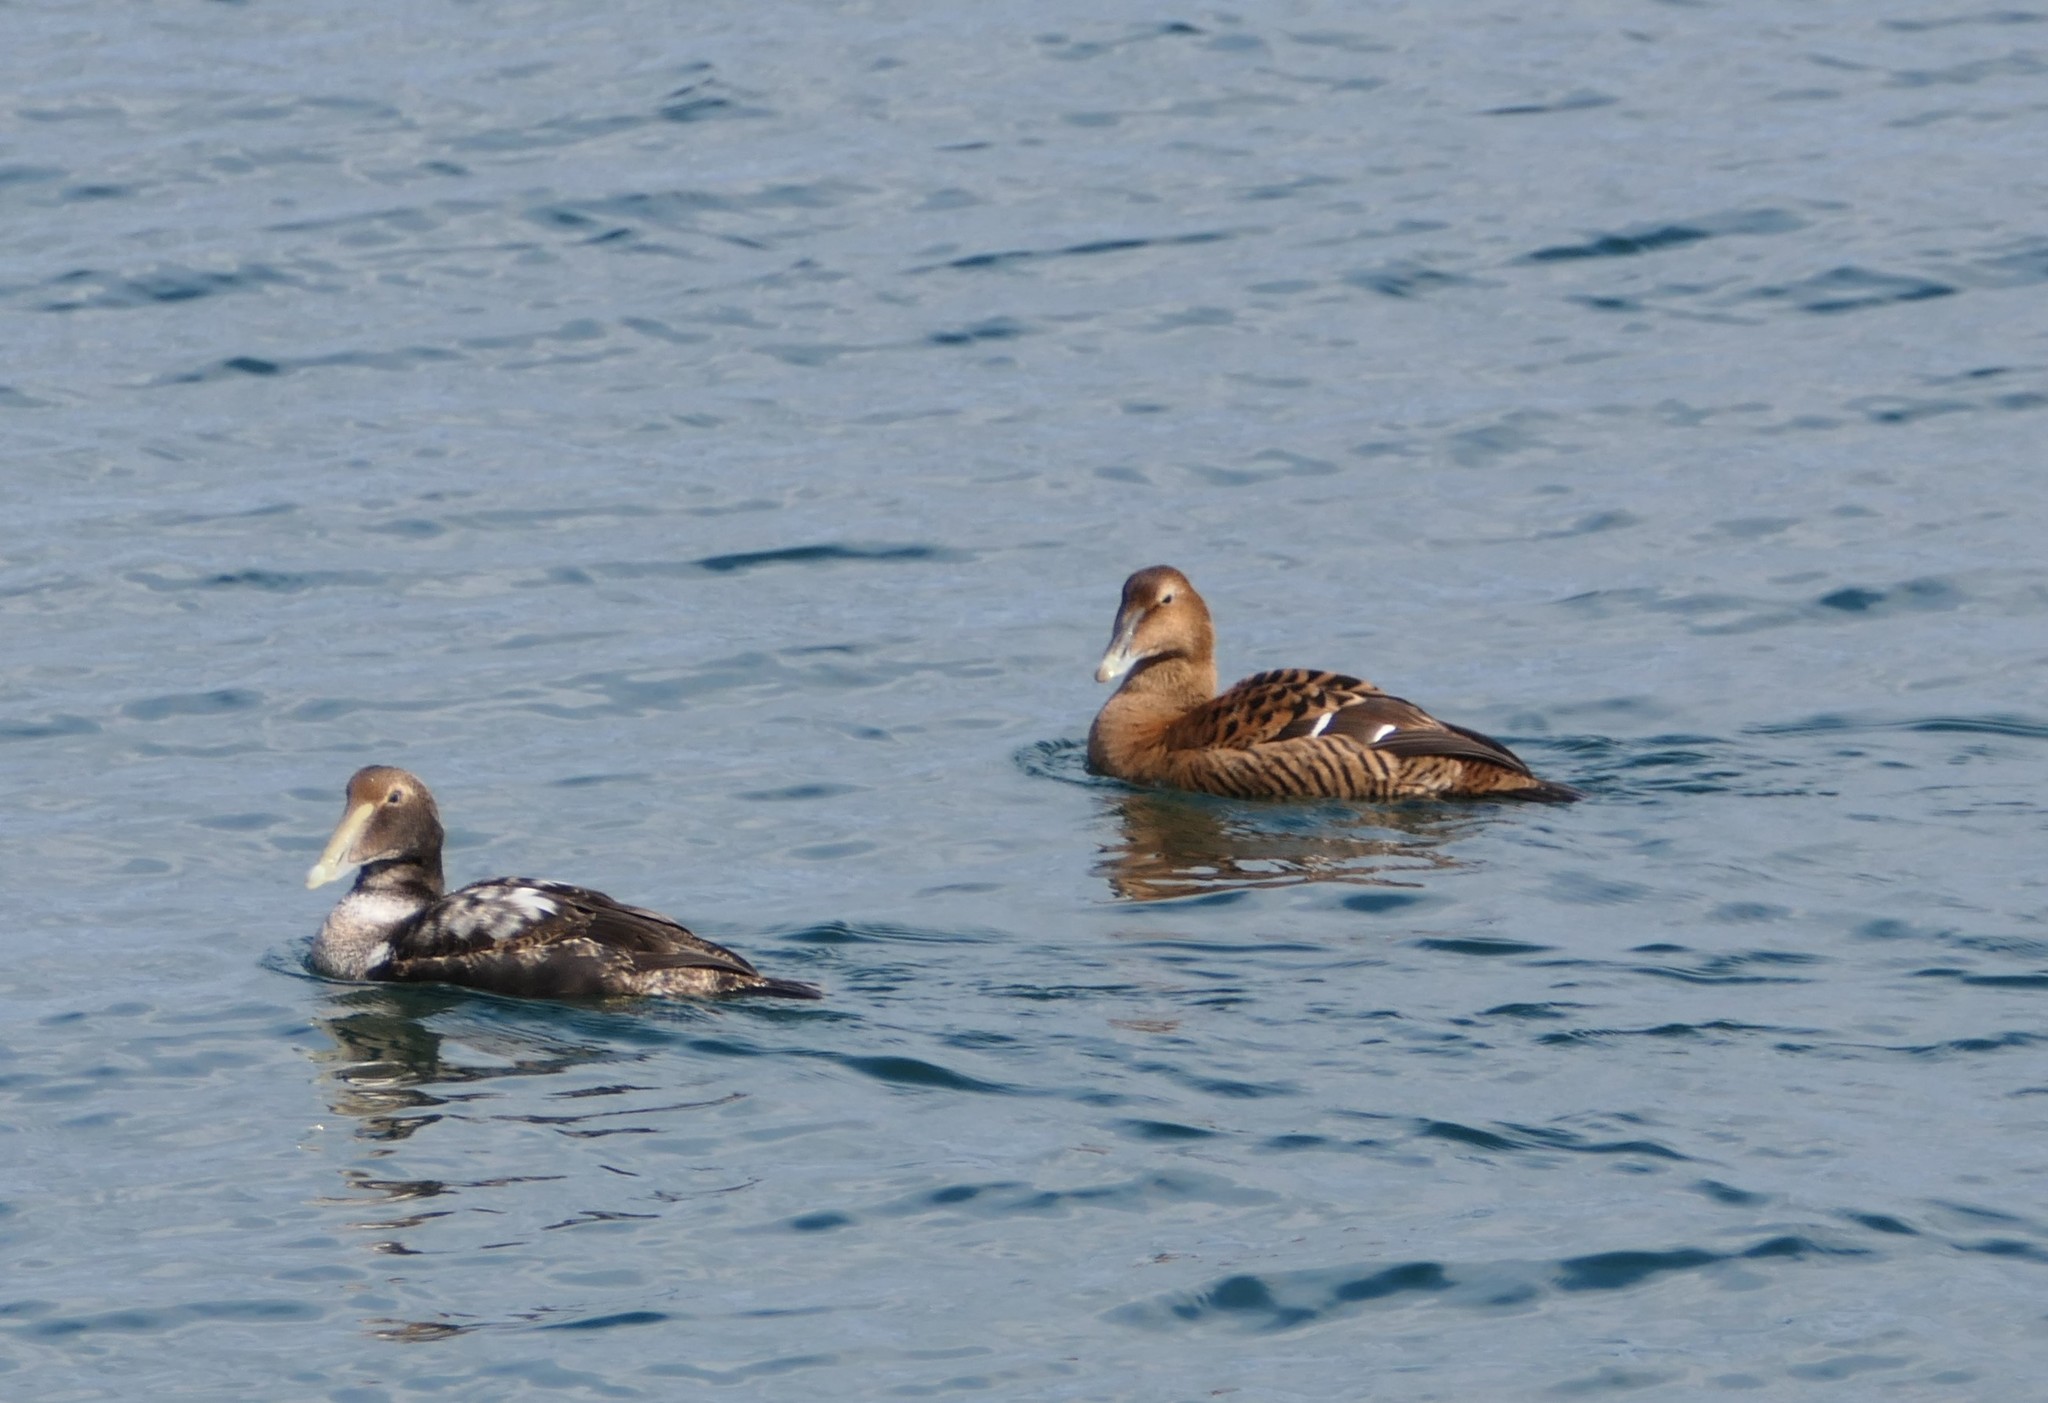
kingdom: Animalia
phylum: Chordata
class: Aves
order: Anseriformes
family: Anatidae
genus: Somateria
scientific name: Somateria mollissima
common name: Common eider
